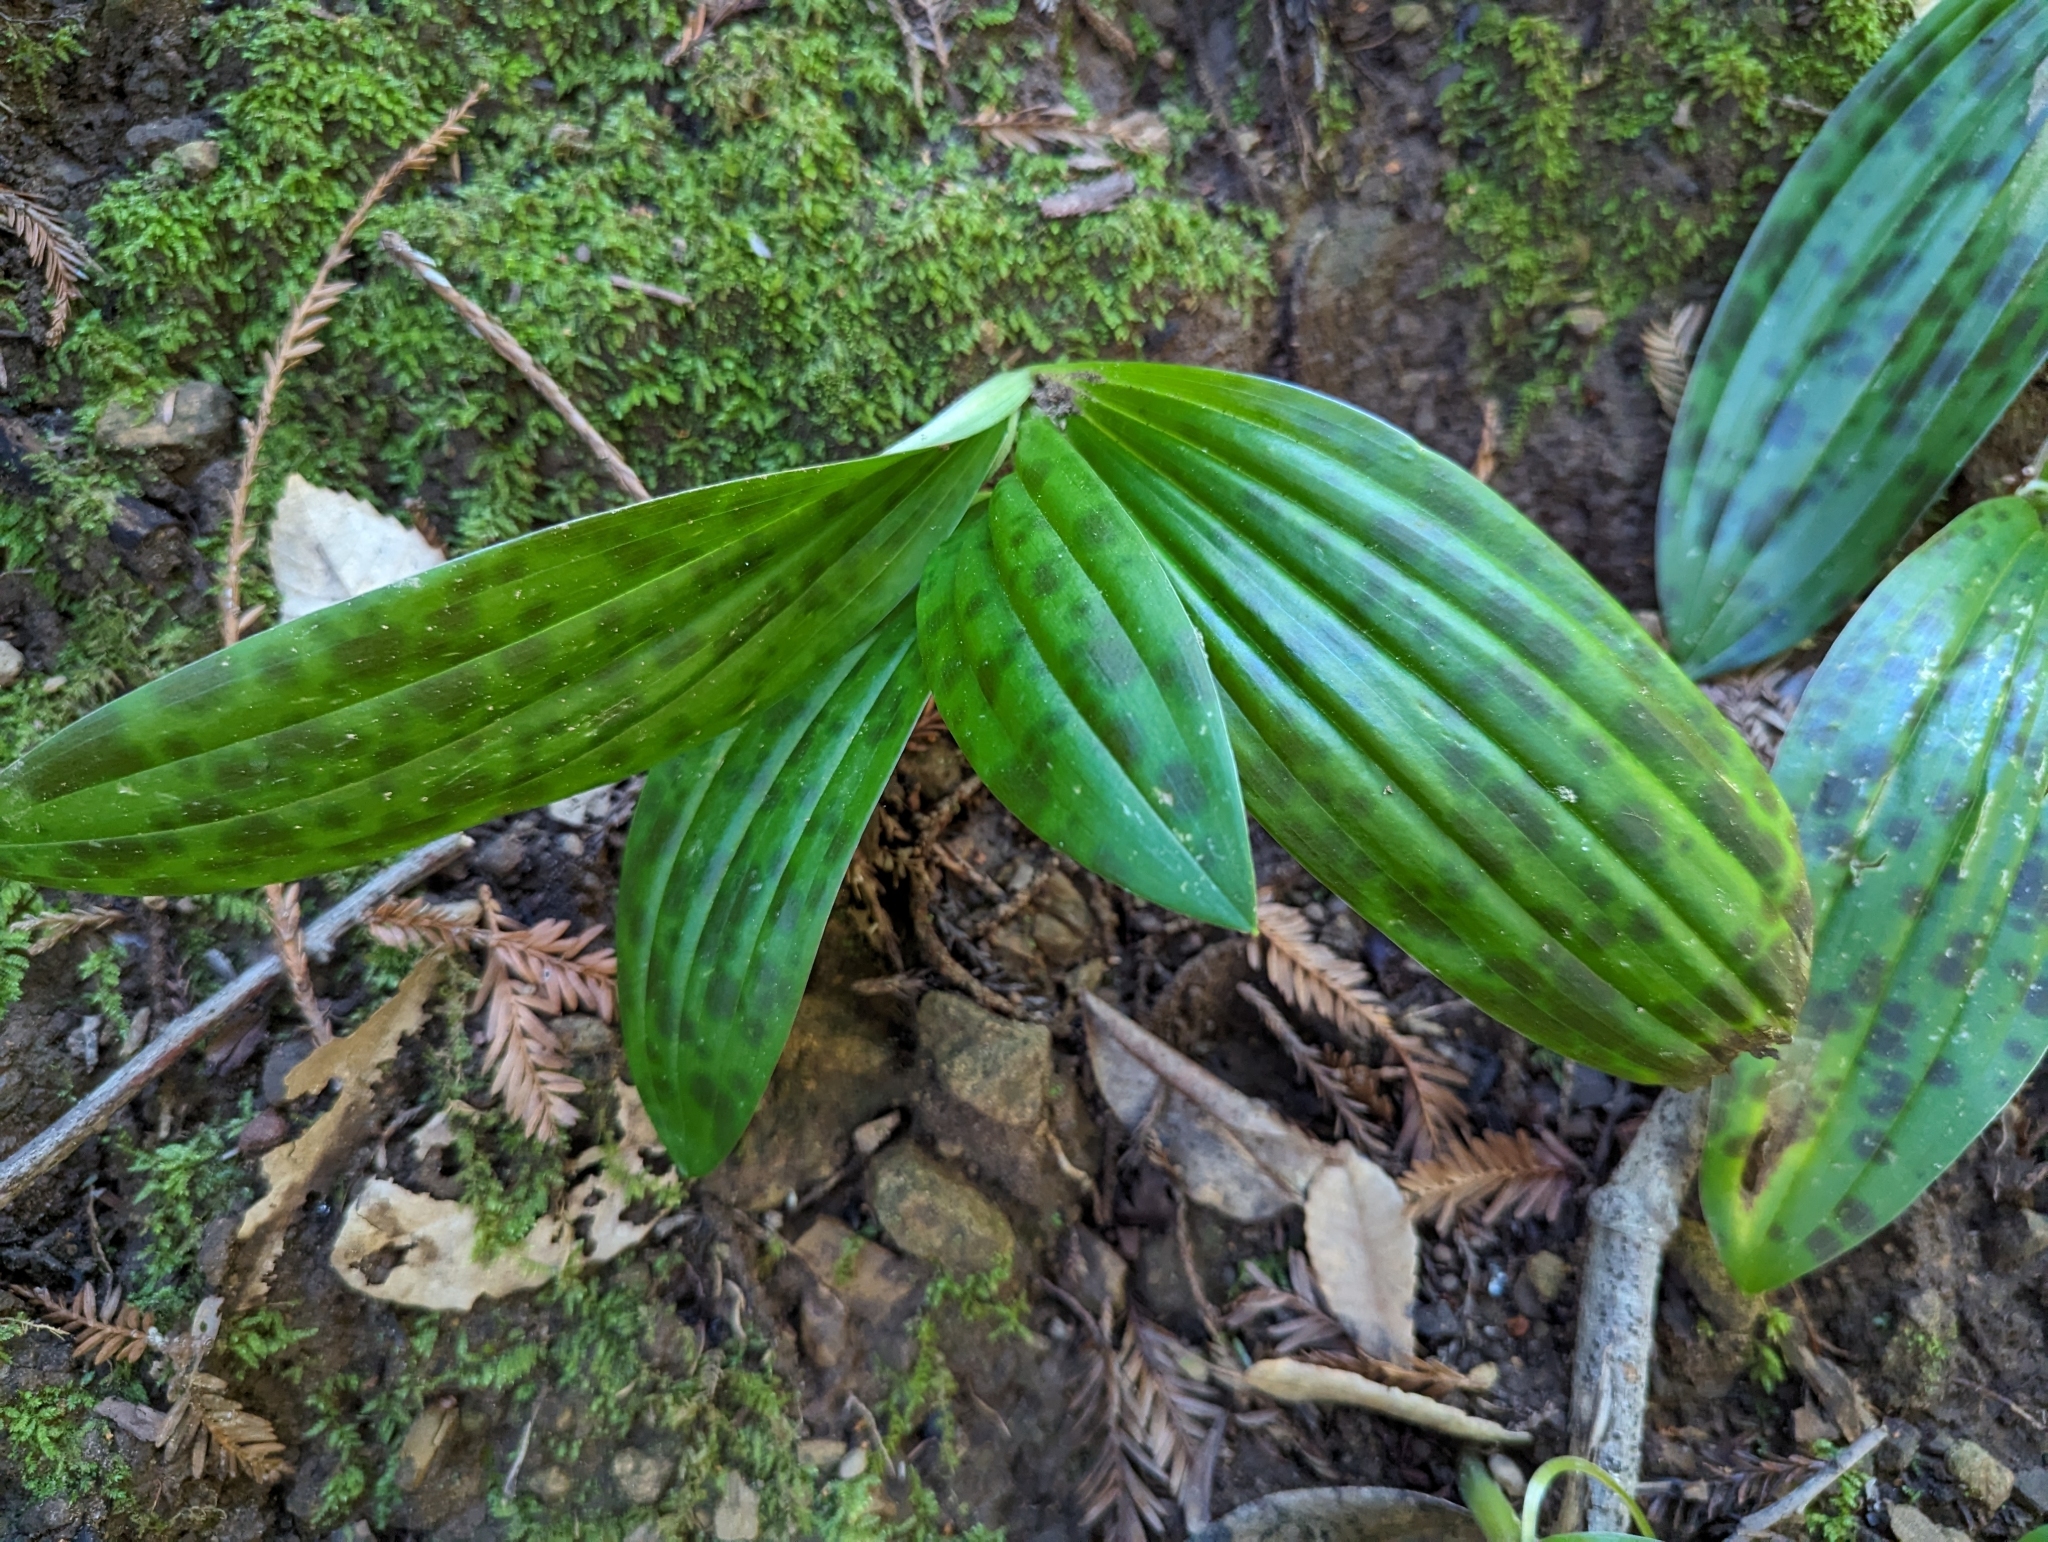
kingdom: Plantae
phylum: Tracheophyta
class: Liliopsida
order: Liliales
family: Liliaceae
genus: Scoliopus
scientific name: Scoliopus bigelovii
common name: Foetid adder's-tongue
